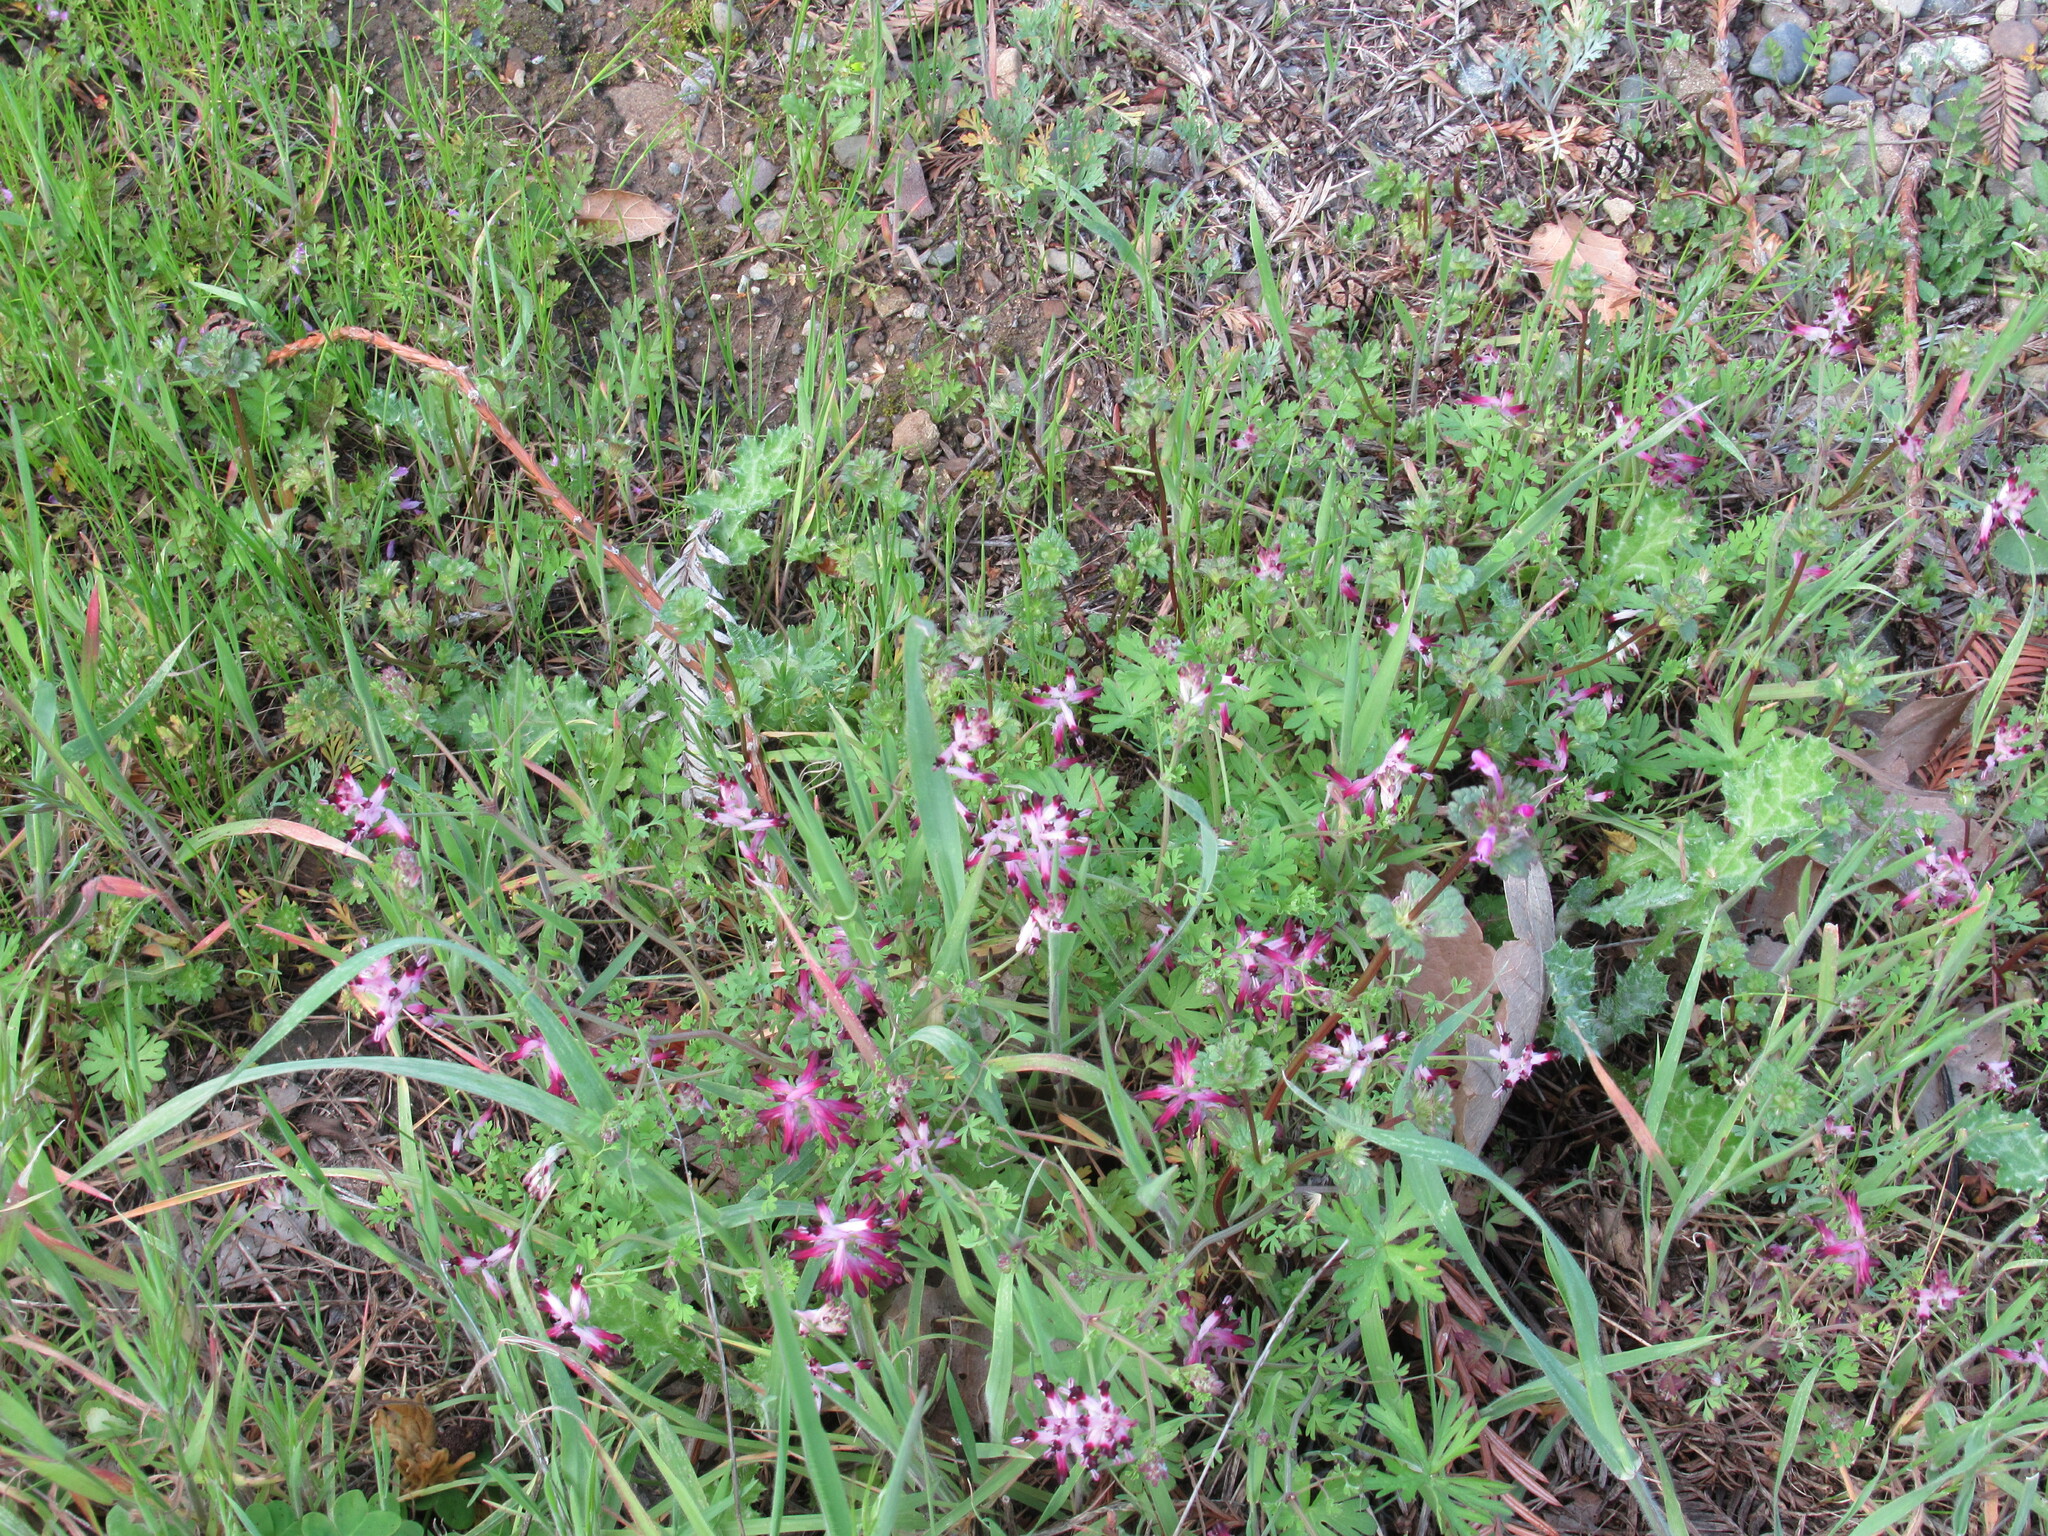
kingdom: Plantae
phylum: Tracheophyta
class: Magnoliopsida
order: Ranunculales
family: Papaveraceae
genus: Fumaria
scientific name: Fumaria muralis
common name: Common ramping-fumitory
